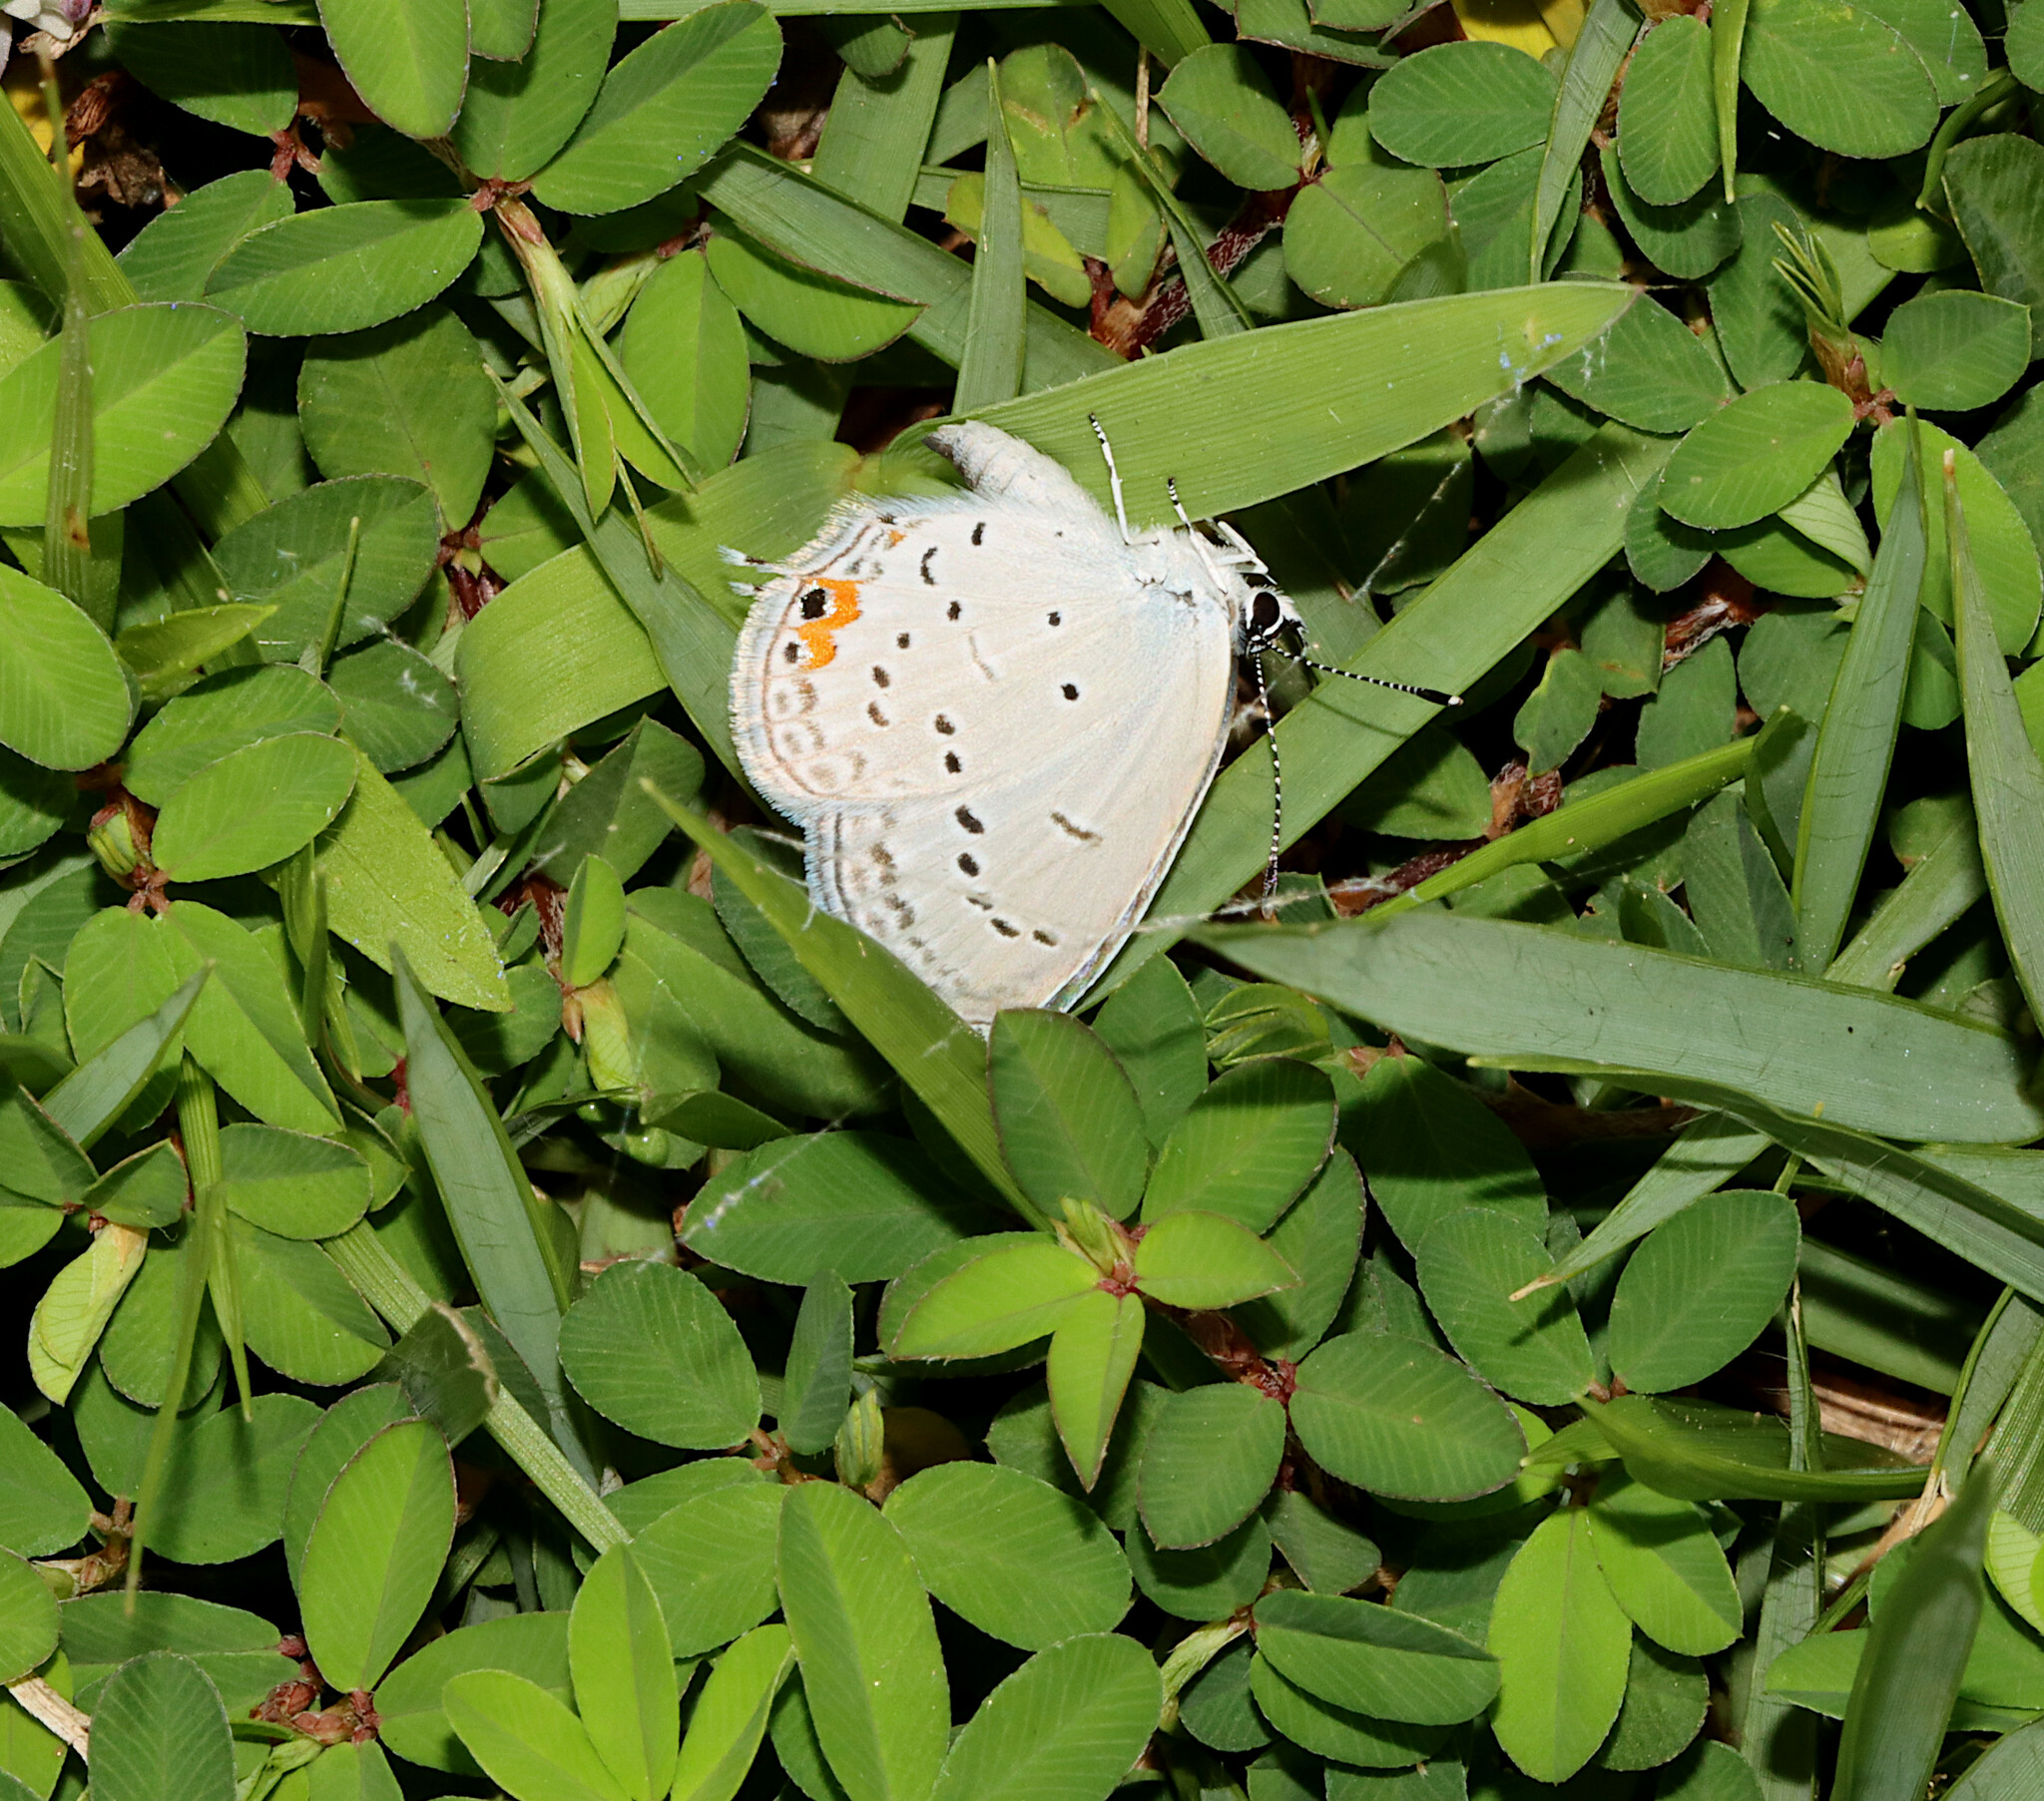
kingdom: Animalia
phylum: Arthropoda
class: Insecta
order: Lepidoptera
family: Lycaenidae
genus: Elkalyce
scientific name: Elkalyce comyntas
